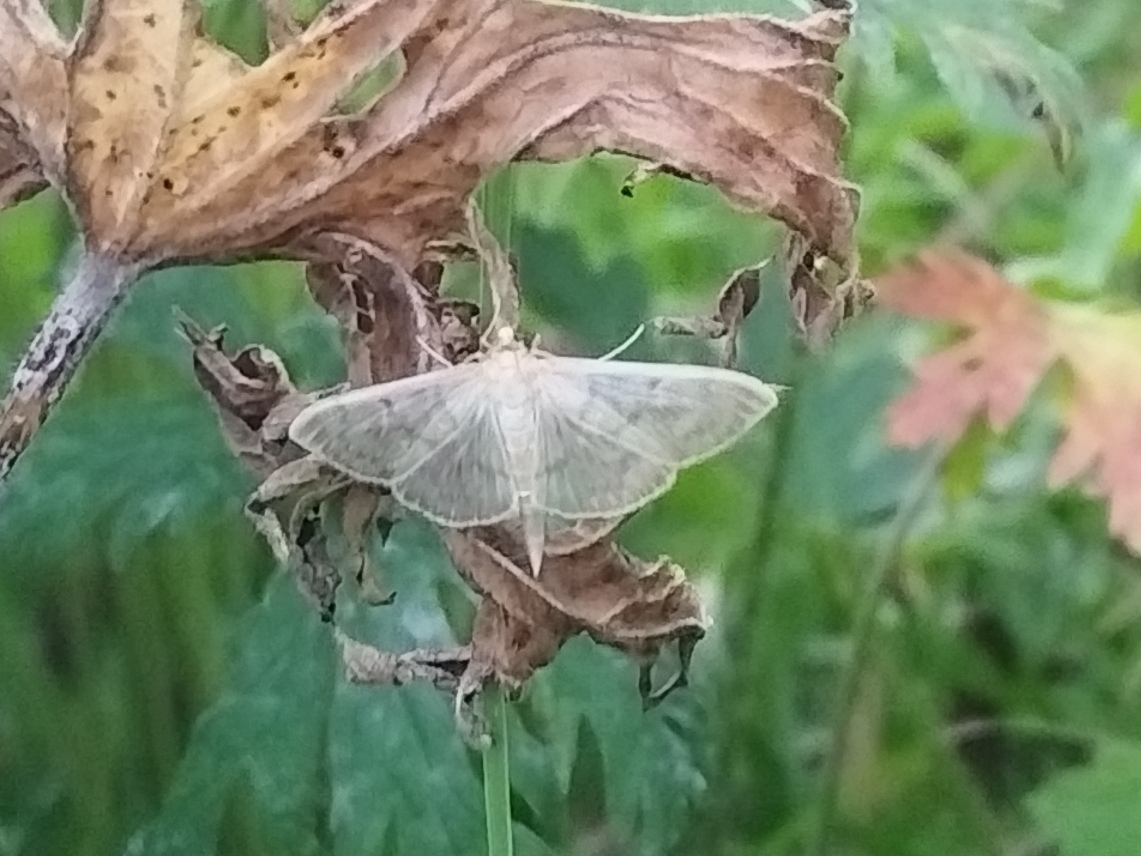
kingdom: Animalia
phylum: Arthropoda
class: Insecta
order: Lepidoptera
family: Crambidae
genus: Patania
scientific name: Patania ruralis
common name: Mother of pearl
